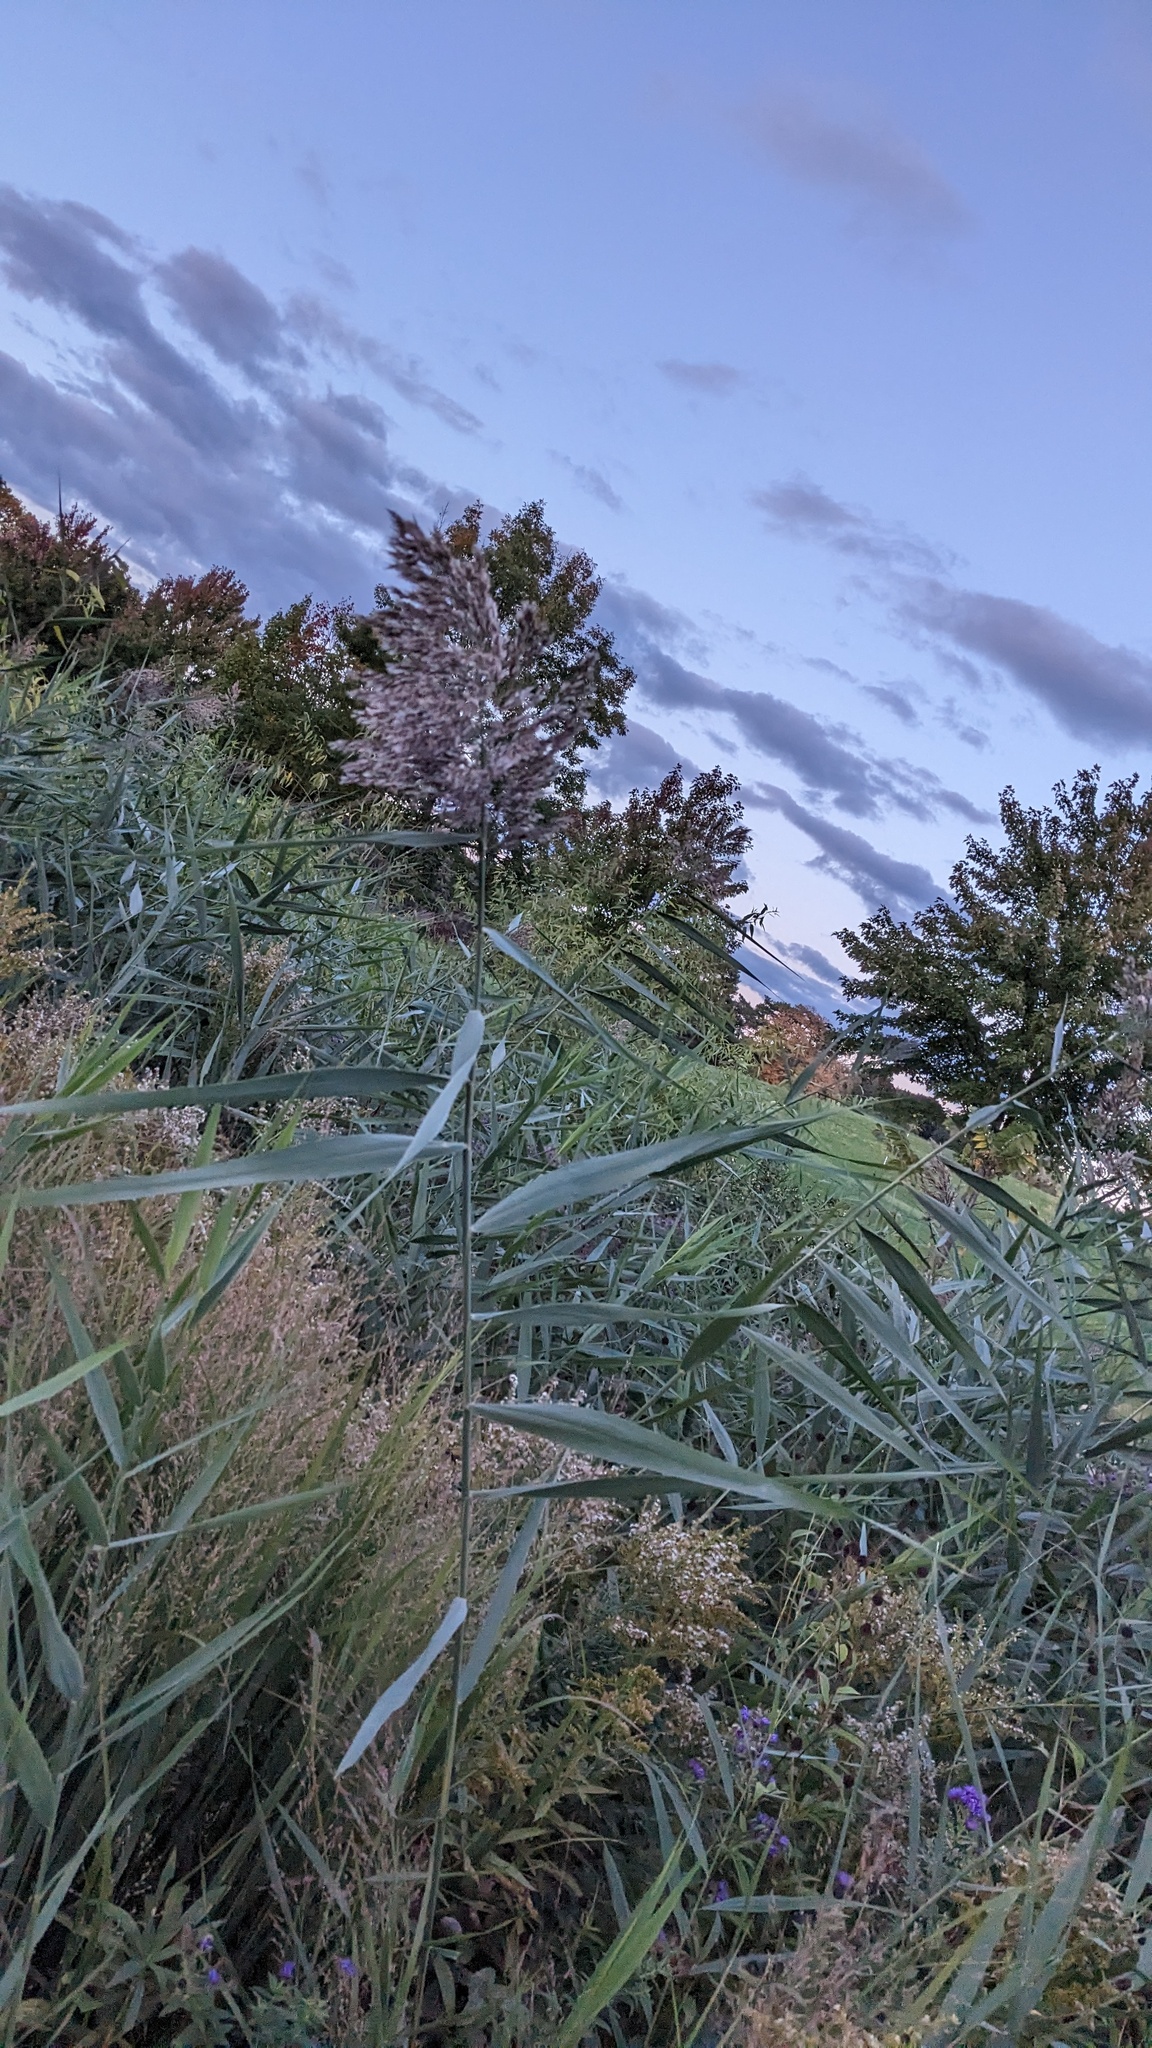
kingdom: Plantae
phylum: Tracheophyta
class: Liliopsida
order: Poales
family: Poaceae
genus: Phragmites
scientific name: Phragmites australis
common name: Common reed
